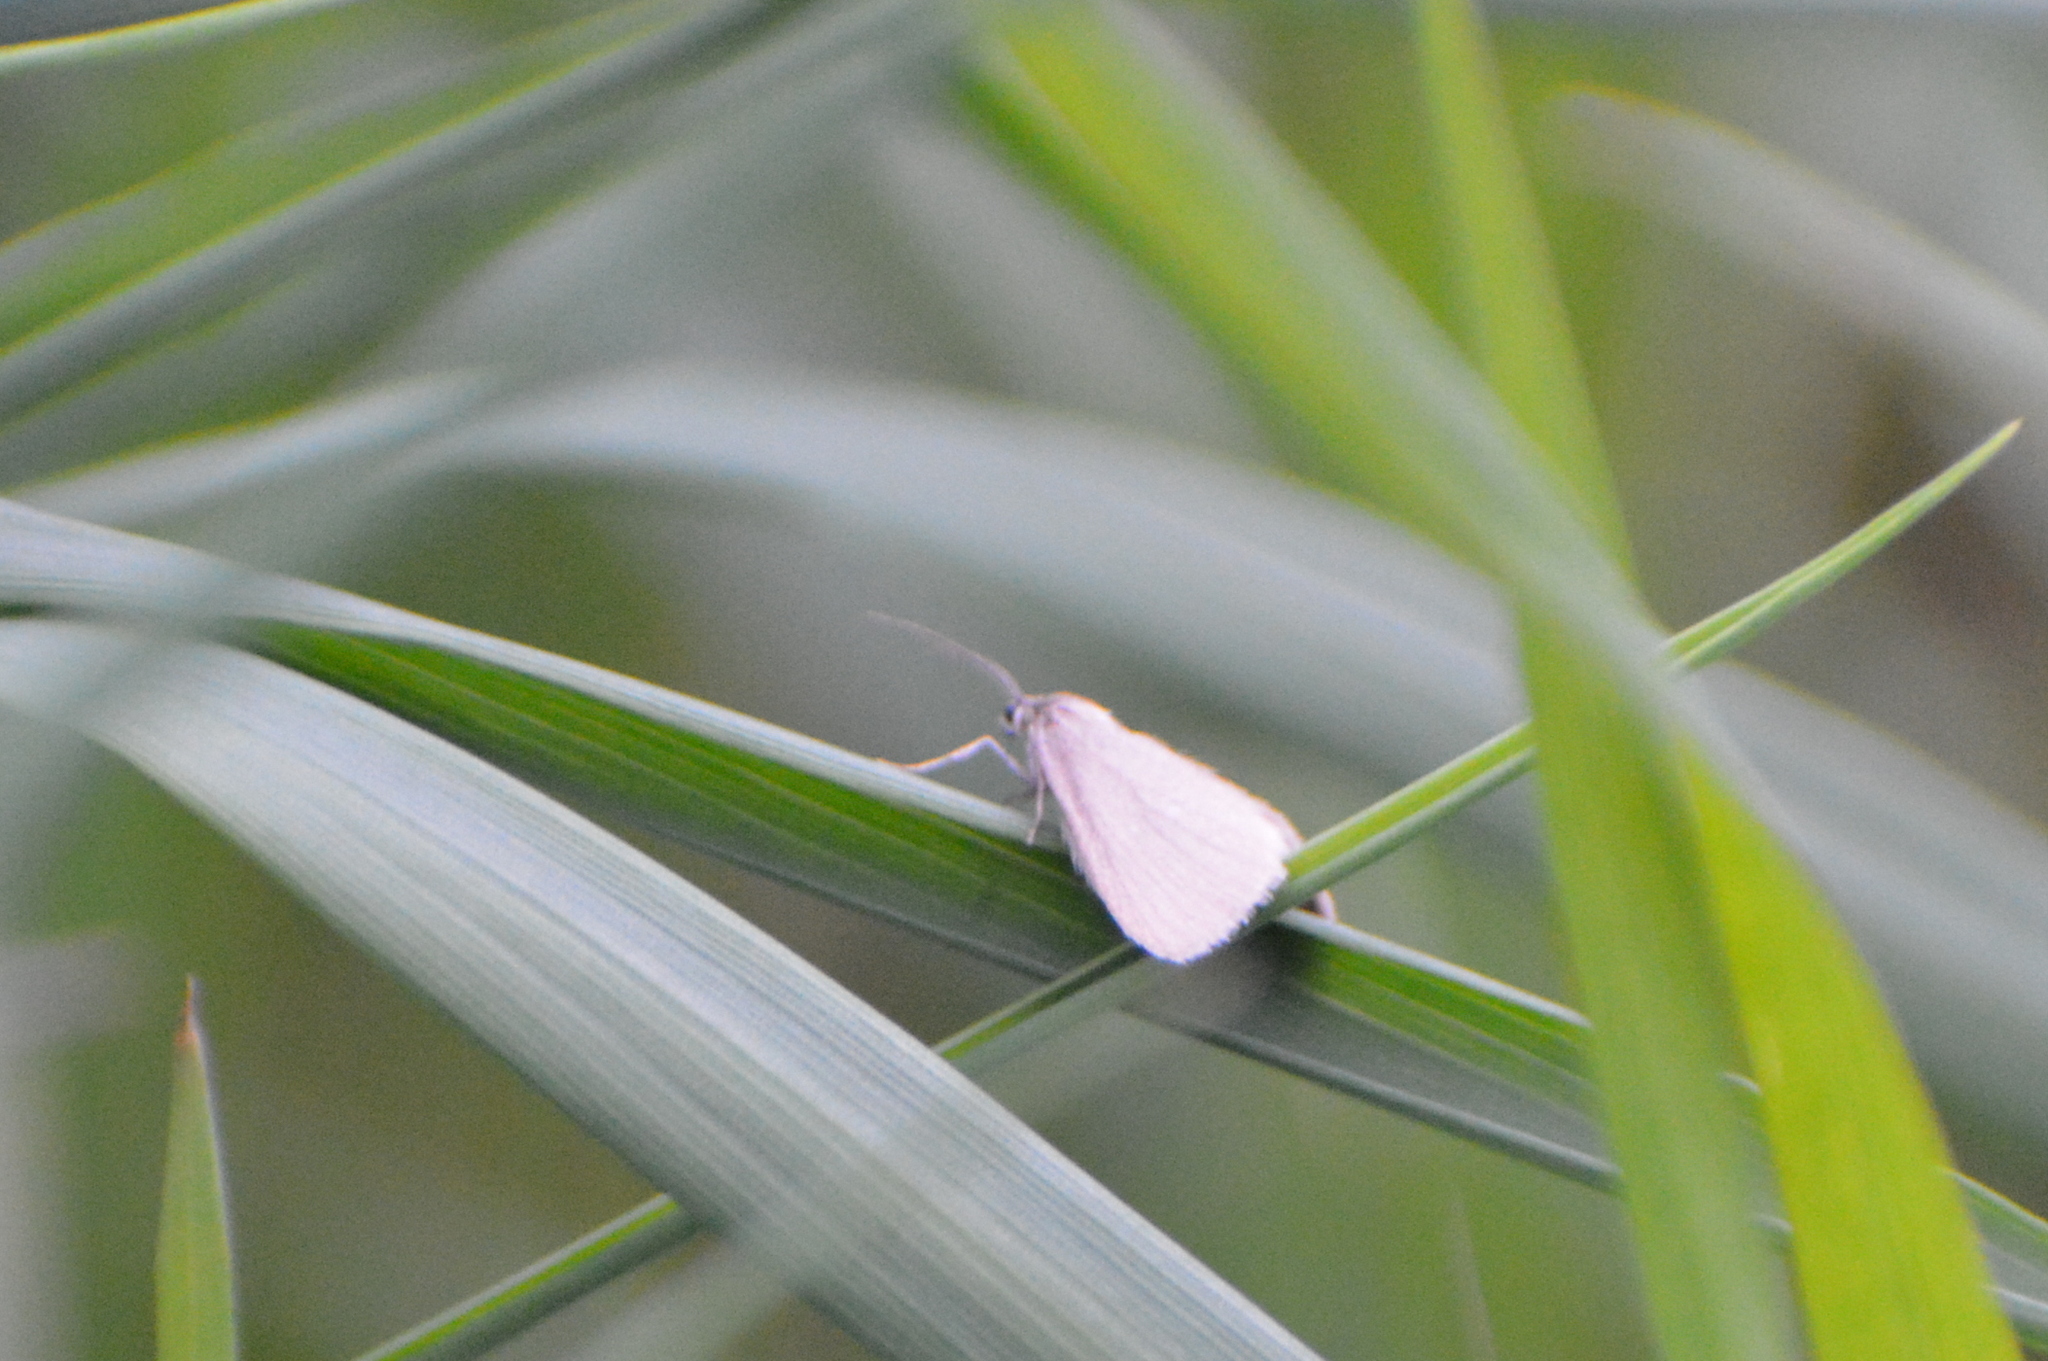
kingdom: Animalia
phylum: Arthropoda
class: Insecta
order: Lepidoptera
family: Geometridae
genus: Siona
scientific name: Siona lineata
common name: Black-veined moth
